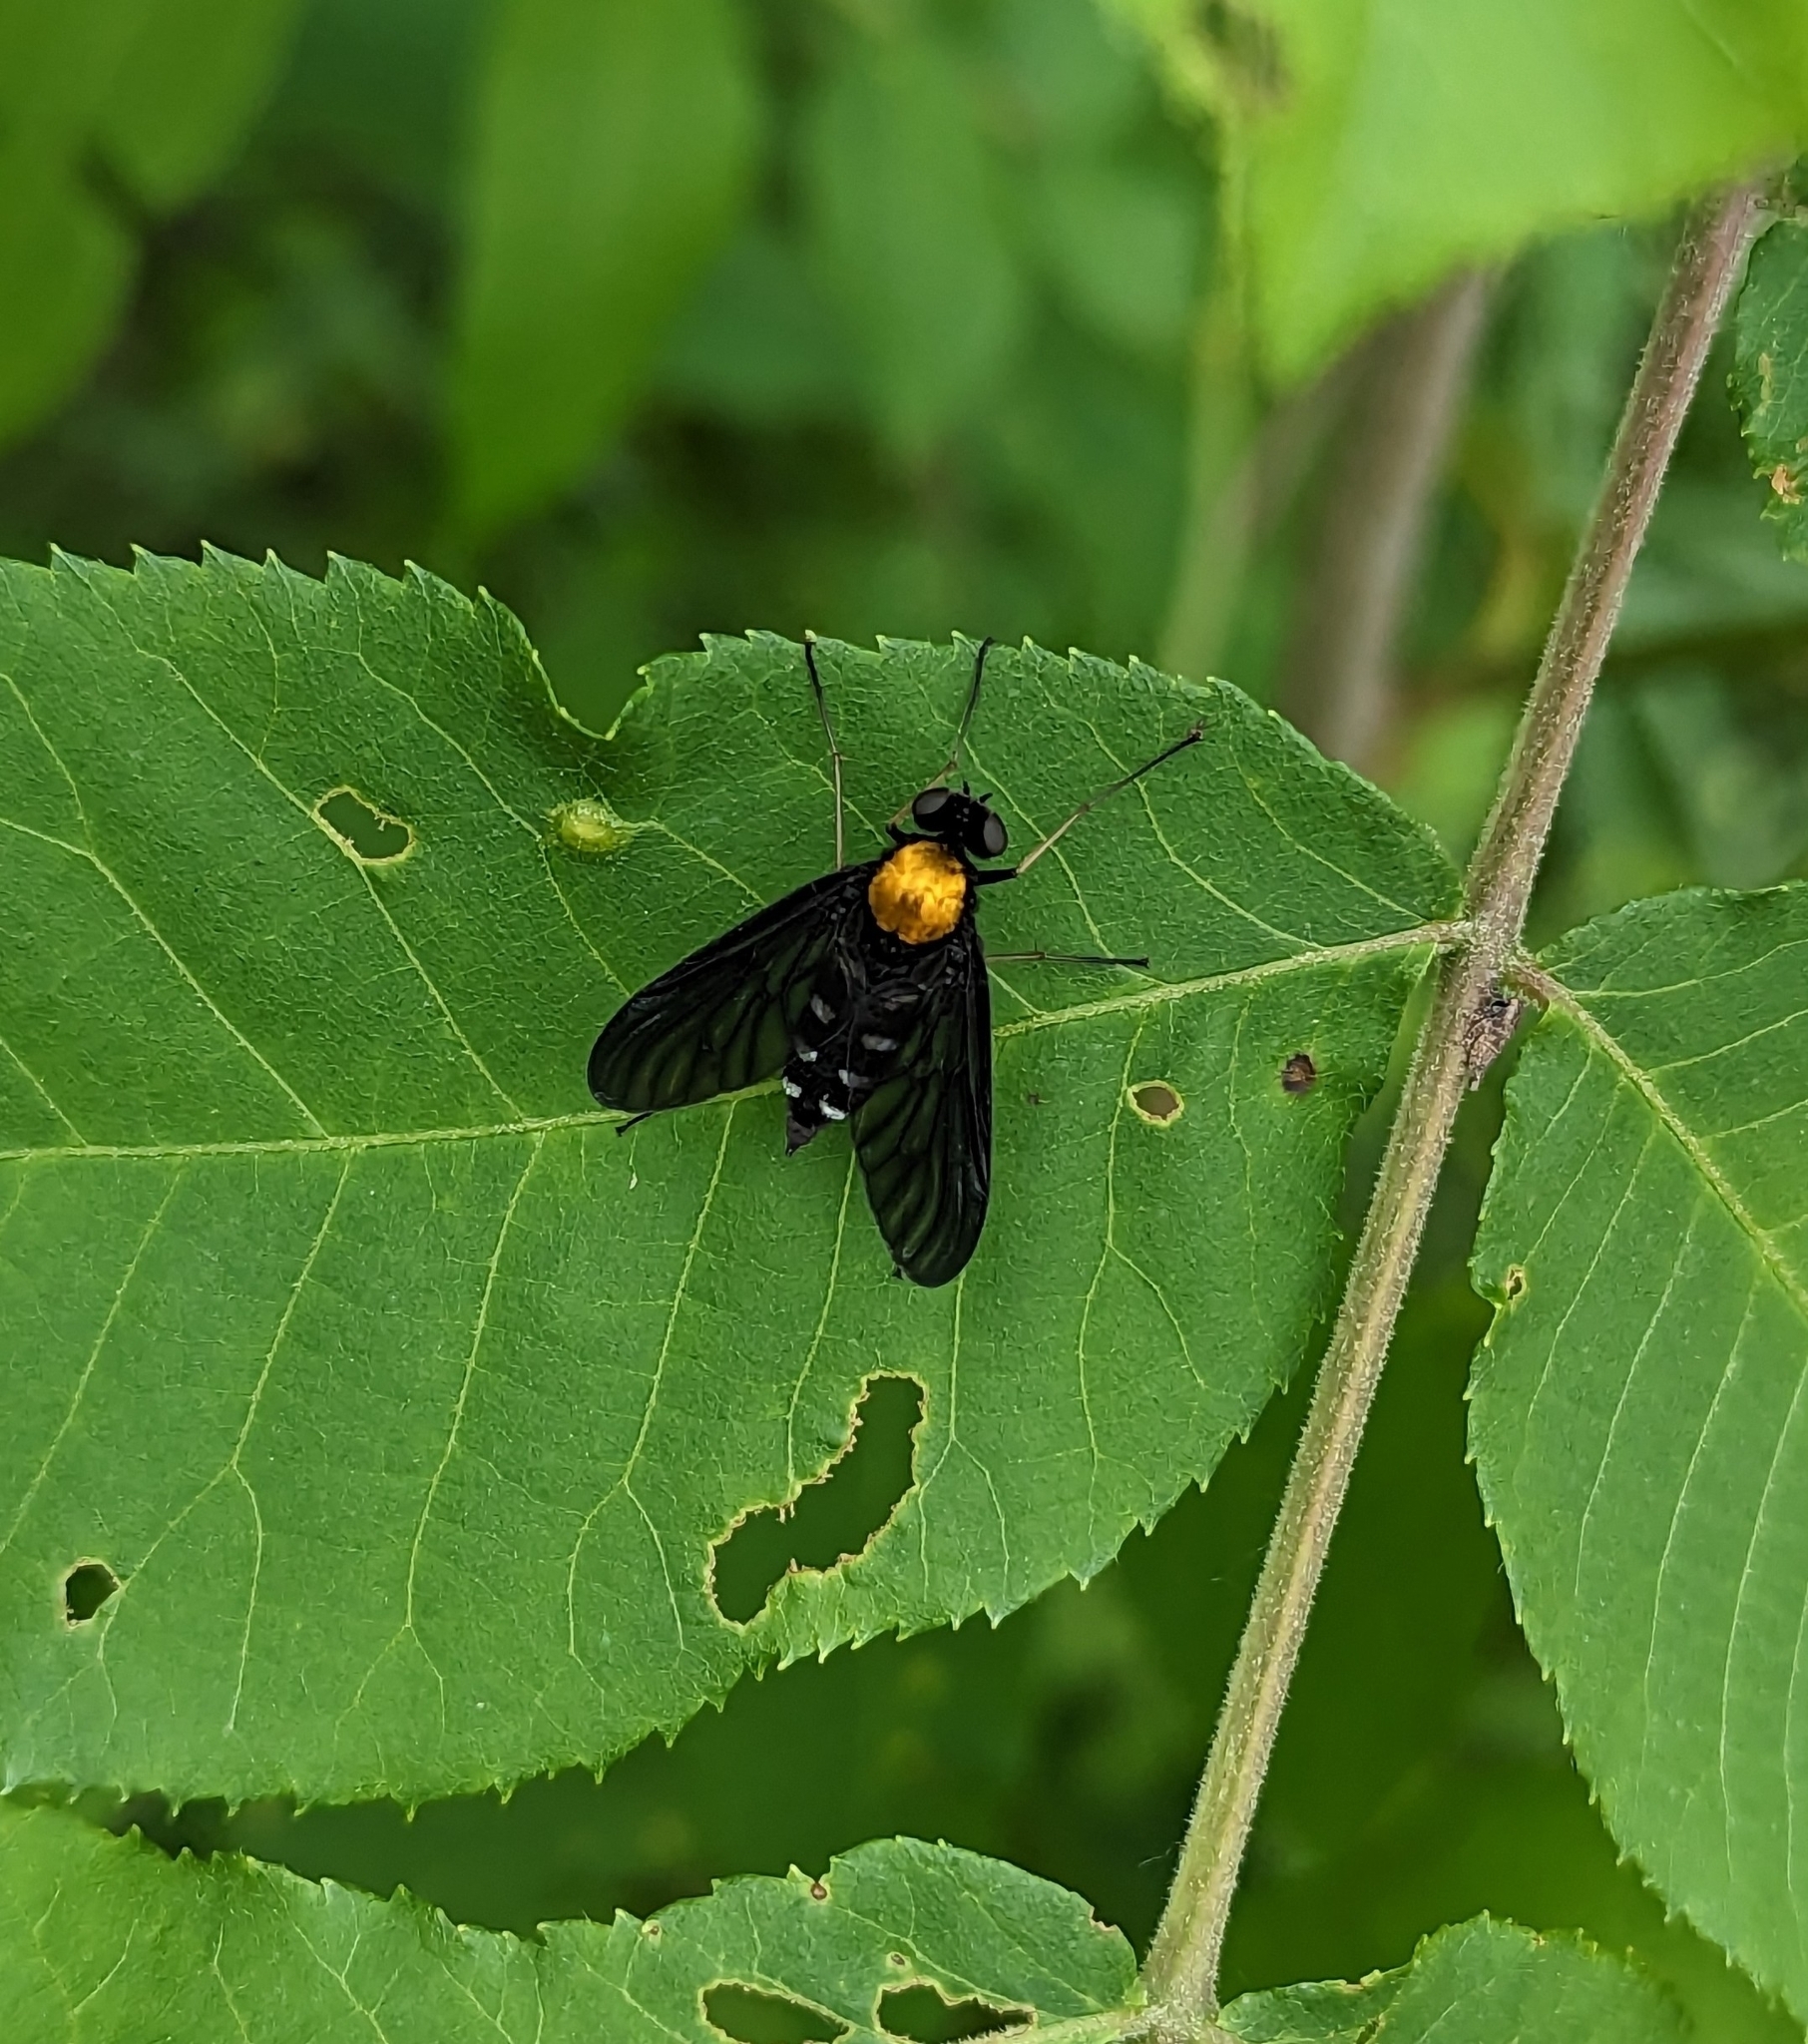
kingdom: Animalia
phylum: Arthropoda
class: Insecta
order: Diptera
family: Rhagionidae
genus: Chrysopilus
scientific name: Chrysopilus thoracicus
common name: Golden-backed snipe fly
